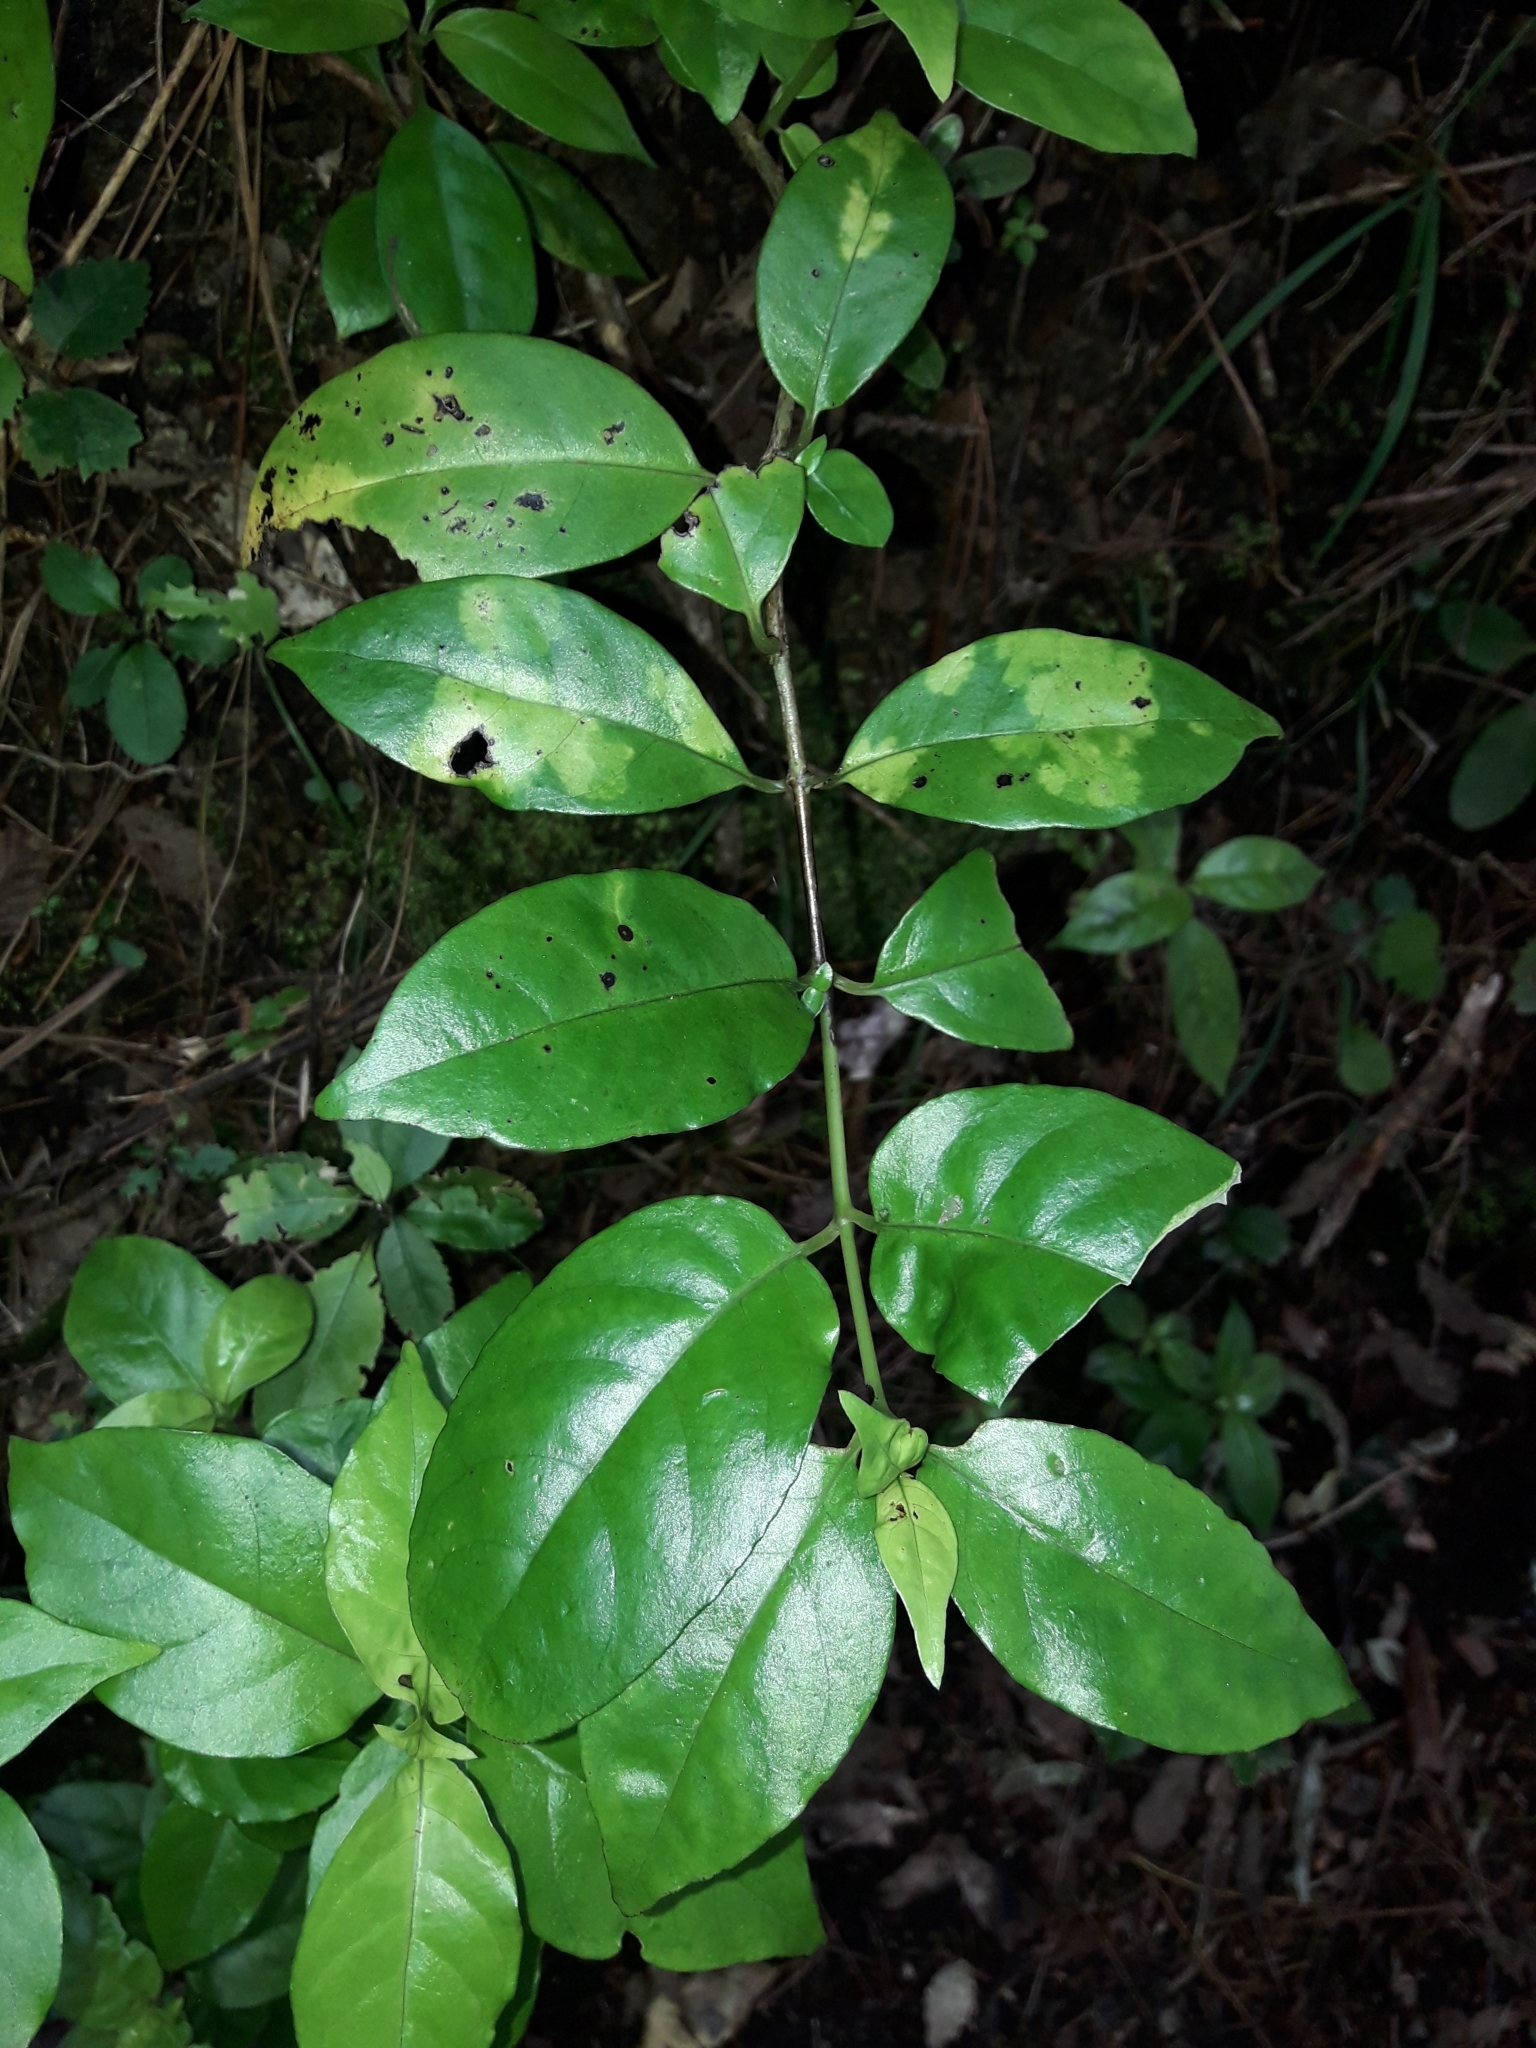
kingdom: Plantae
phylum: Tracheophyta
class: Magnoliopsida
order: Gentianales
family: Loganiaceae
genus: Geniostoma
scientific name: Geniostoma ligustrifolium
